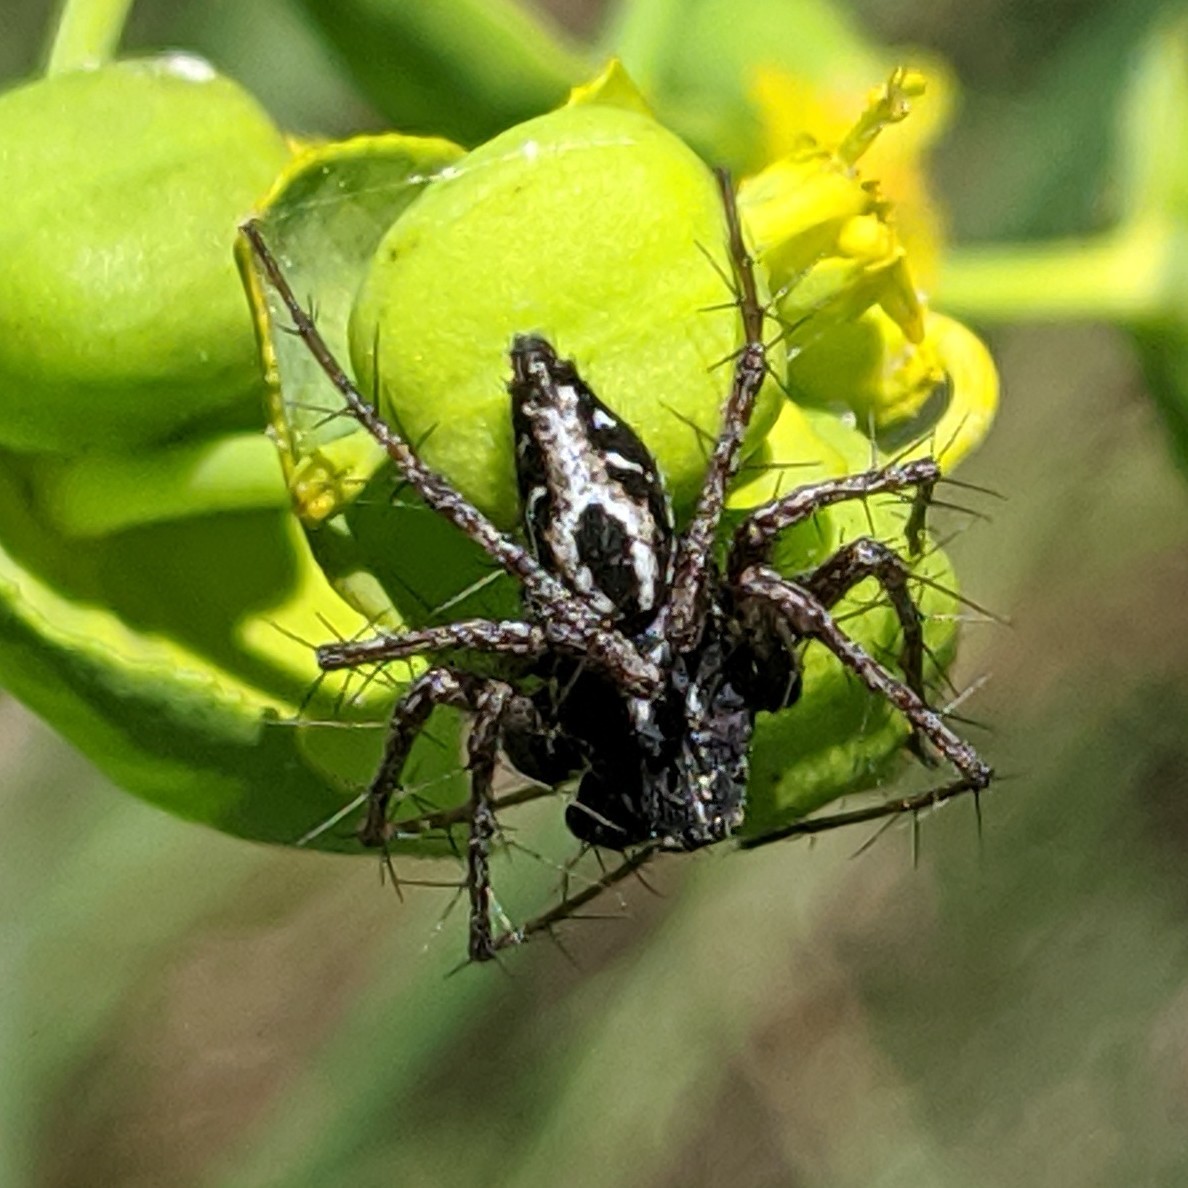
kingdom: Animalia
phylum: Arthropoda
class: Arachnida
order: Araneae
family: Oxyopidae
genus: Oxyopes
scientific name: Oxyopes heterophthalmus
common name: Lynx spider
